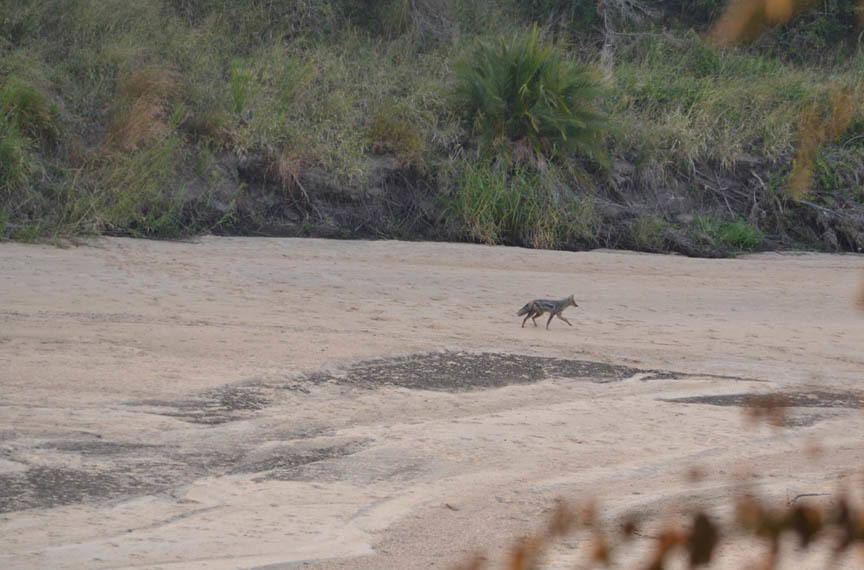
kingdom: Animalia
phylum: Chordata
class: Mammalia
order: Carnivora
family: Canidae
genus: Lupulella
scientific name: Lupulella
